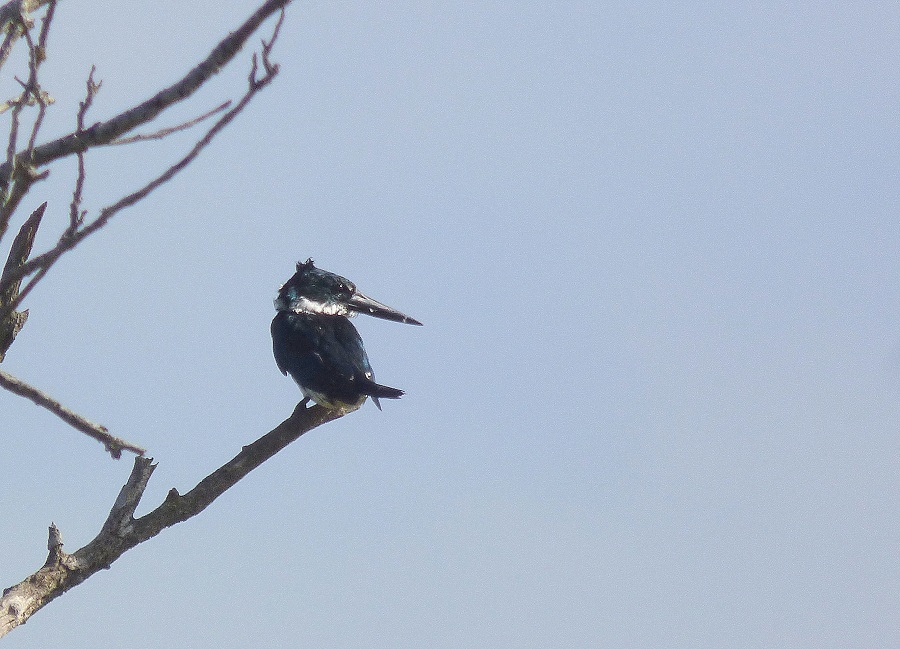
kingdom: Animalia
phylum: Chordata
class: Aves
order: Coraciiformes
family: Alcedinidae
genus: Chloroceryle
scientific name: Chloroceryle amazona
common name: Amazon kingfisher
